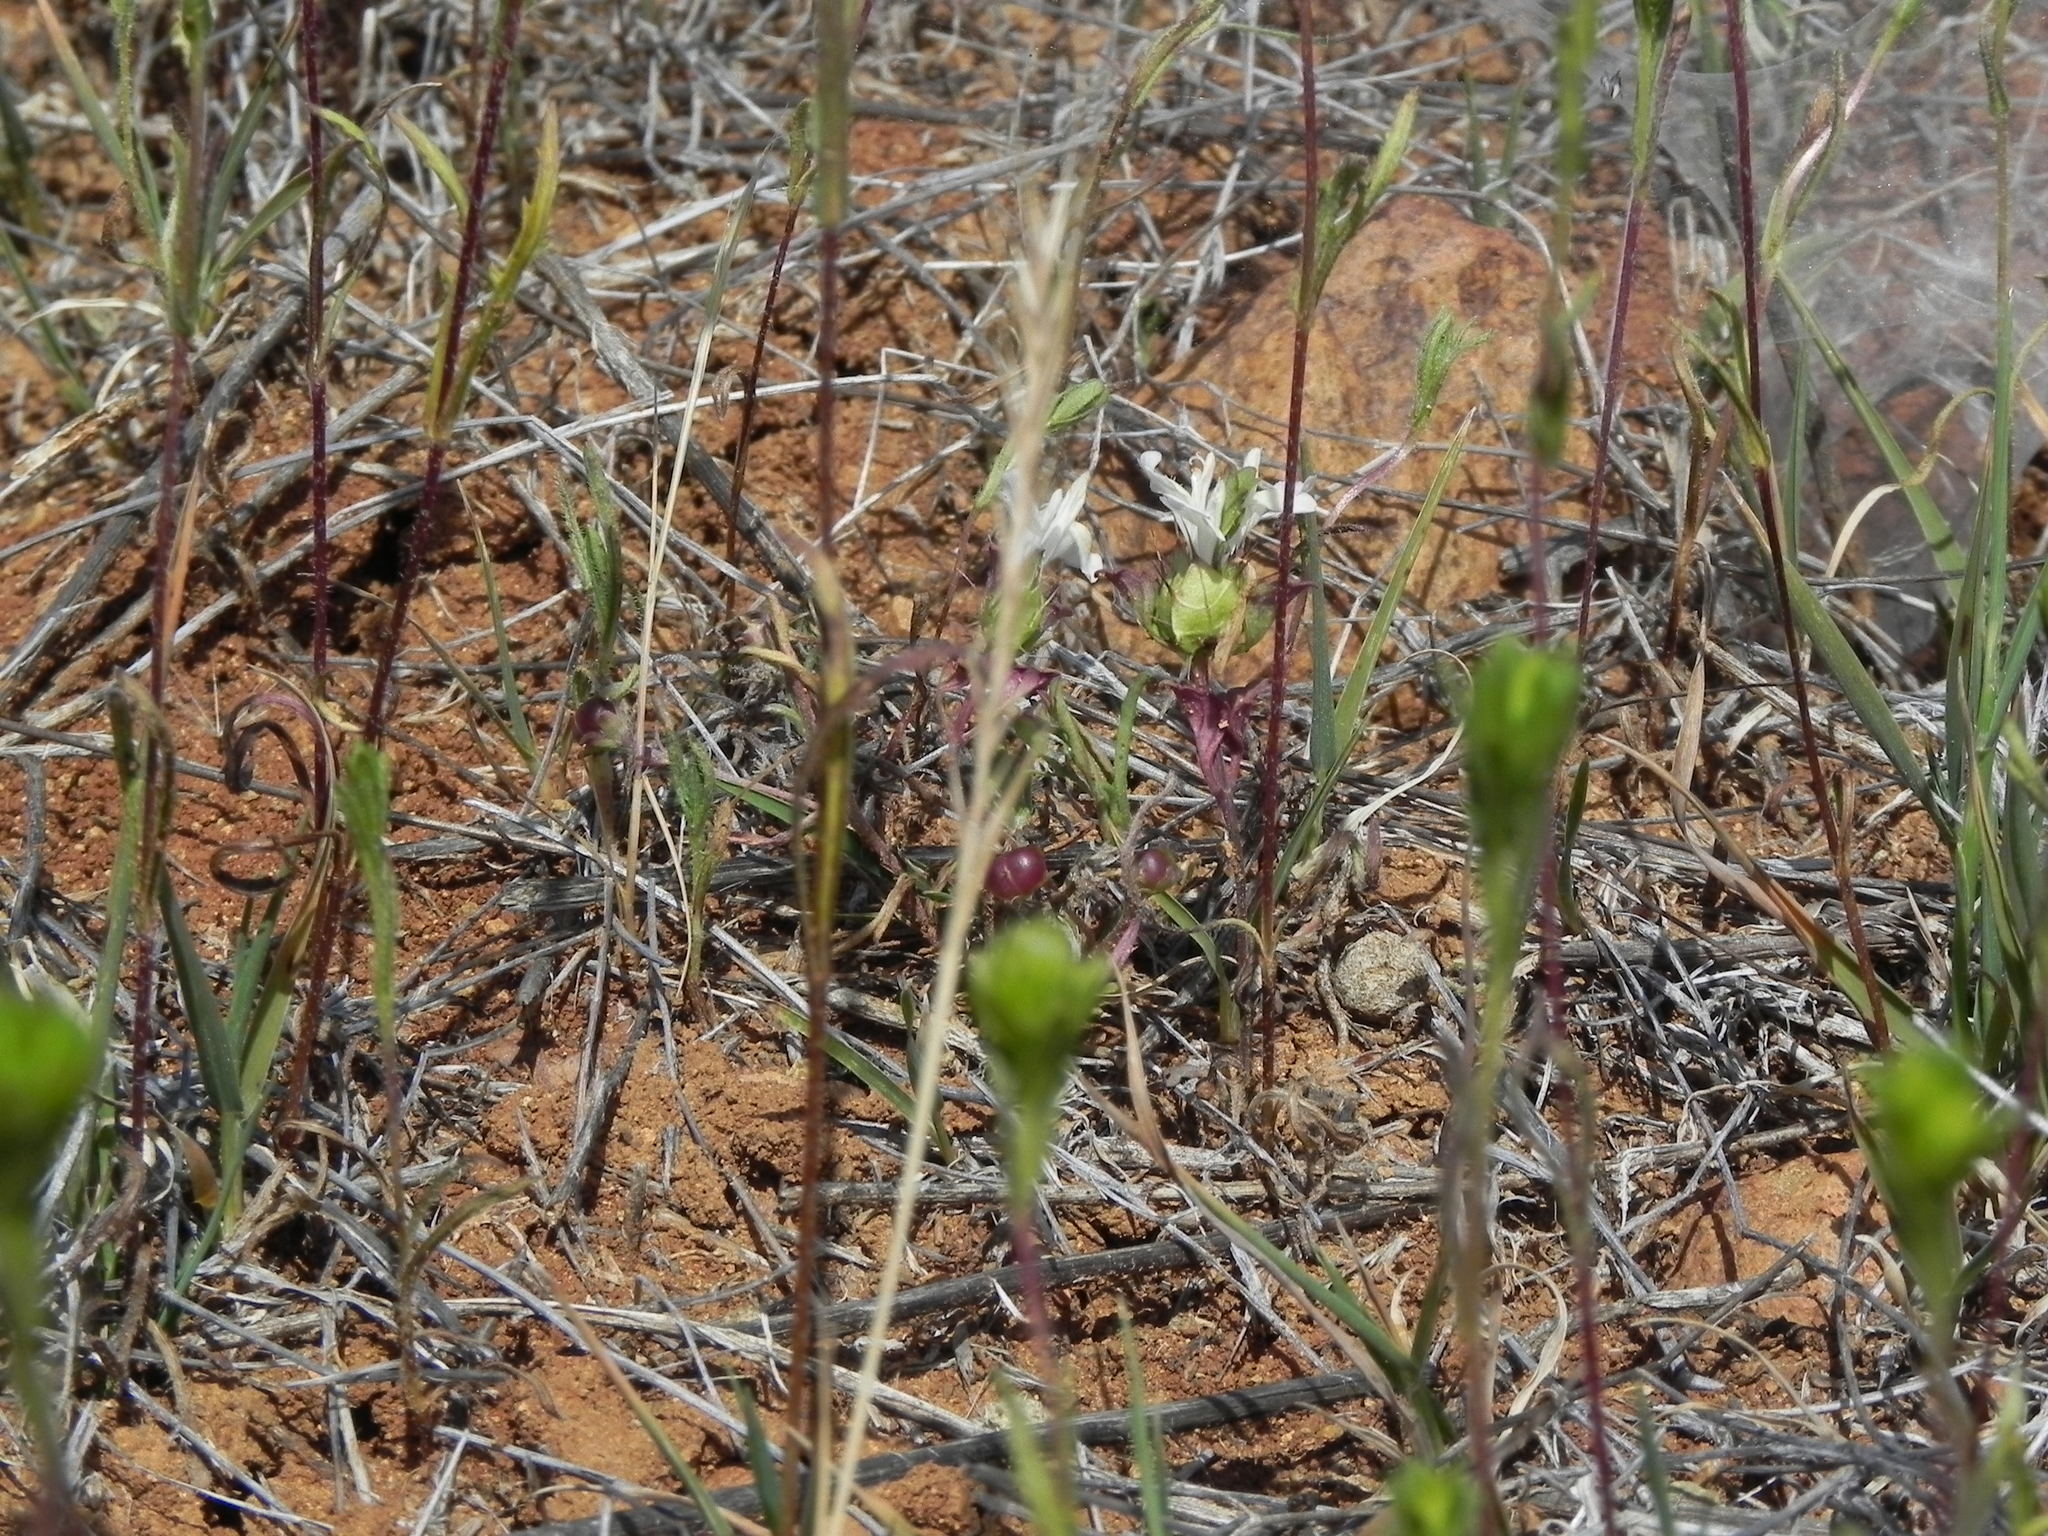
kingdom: Plantae
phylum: Tracheophyta
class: Magnoliopsida
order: Lamiales
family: Lamiaceae
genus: Acanthomintha
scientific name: Acanthomintha ilicifolia
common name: San diego thorn-mint
